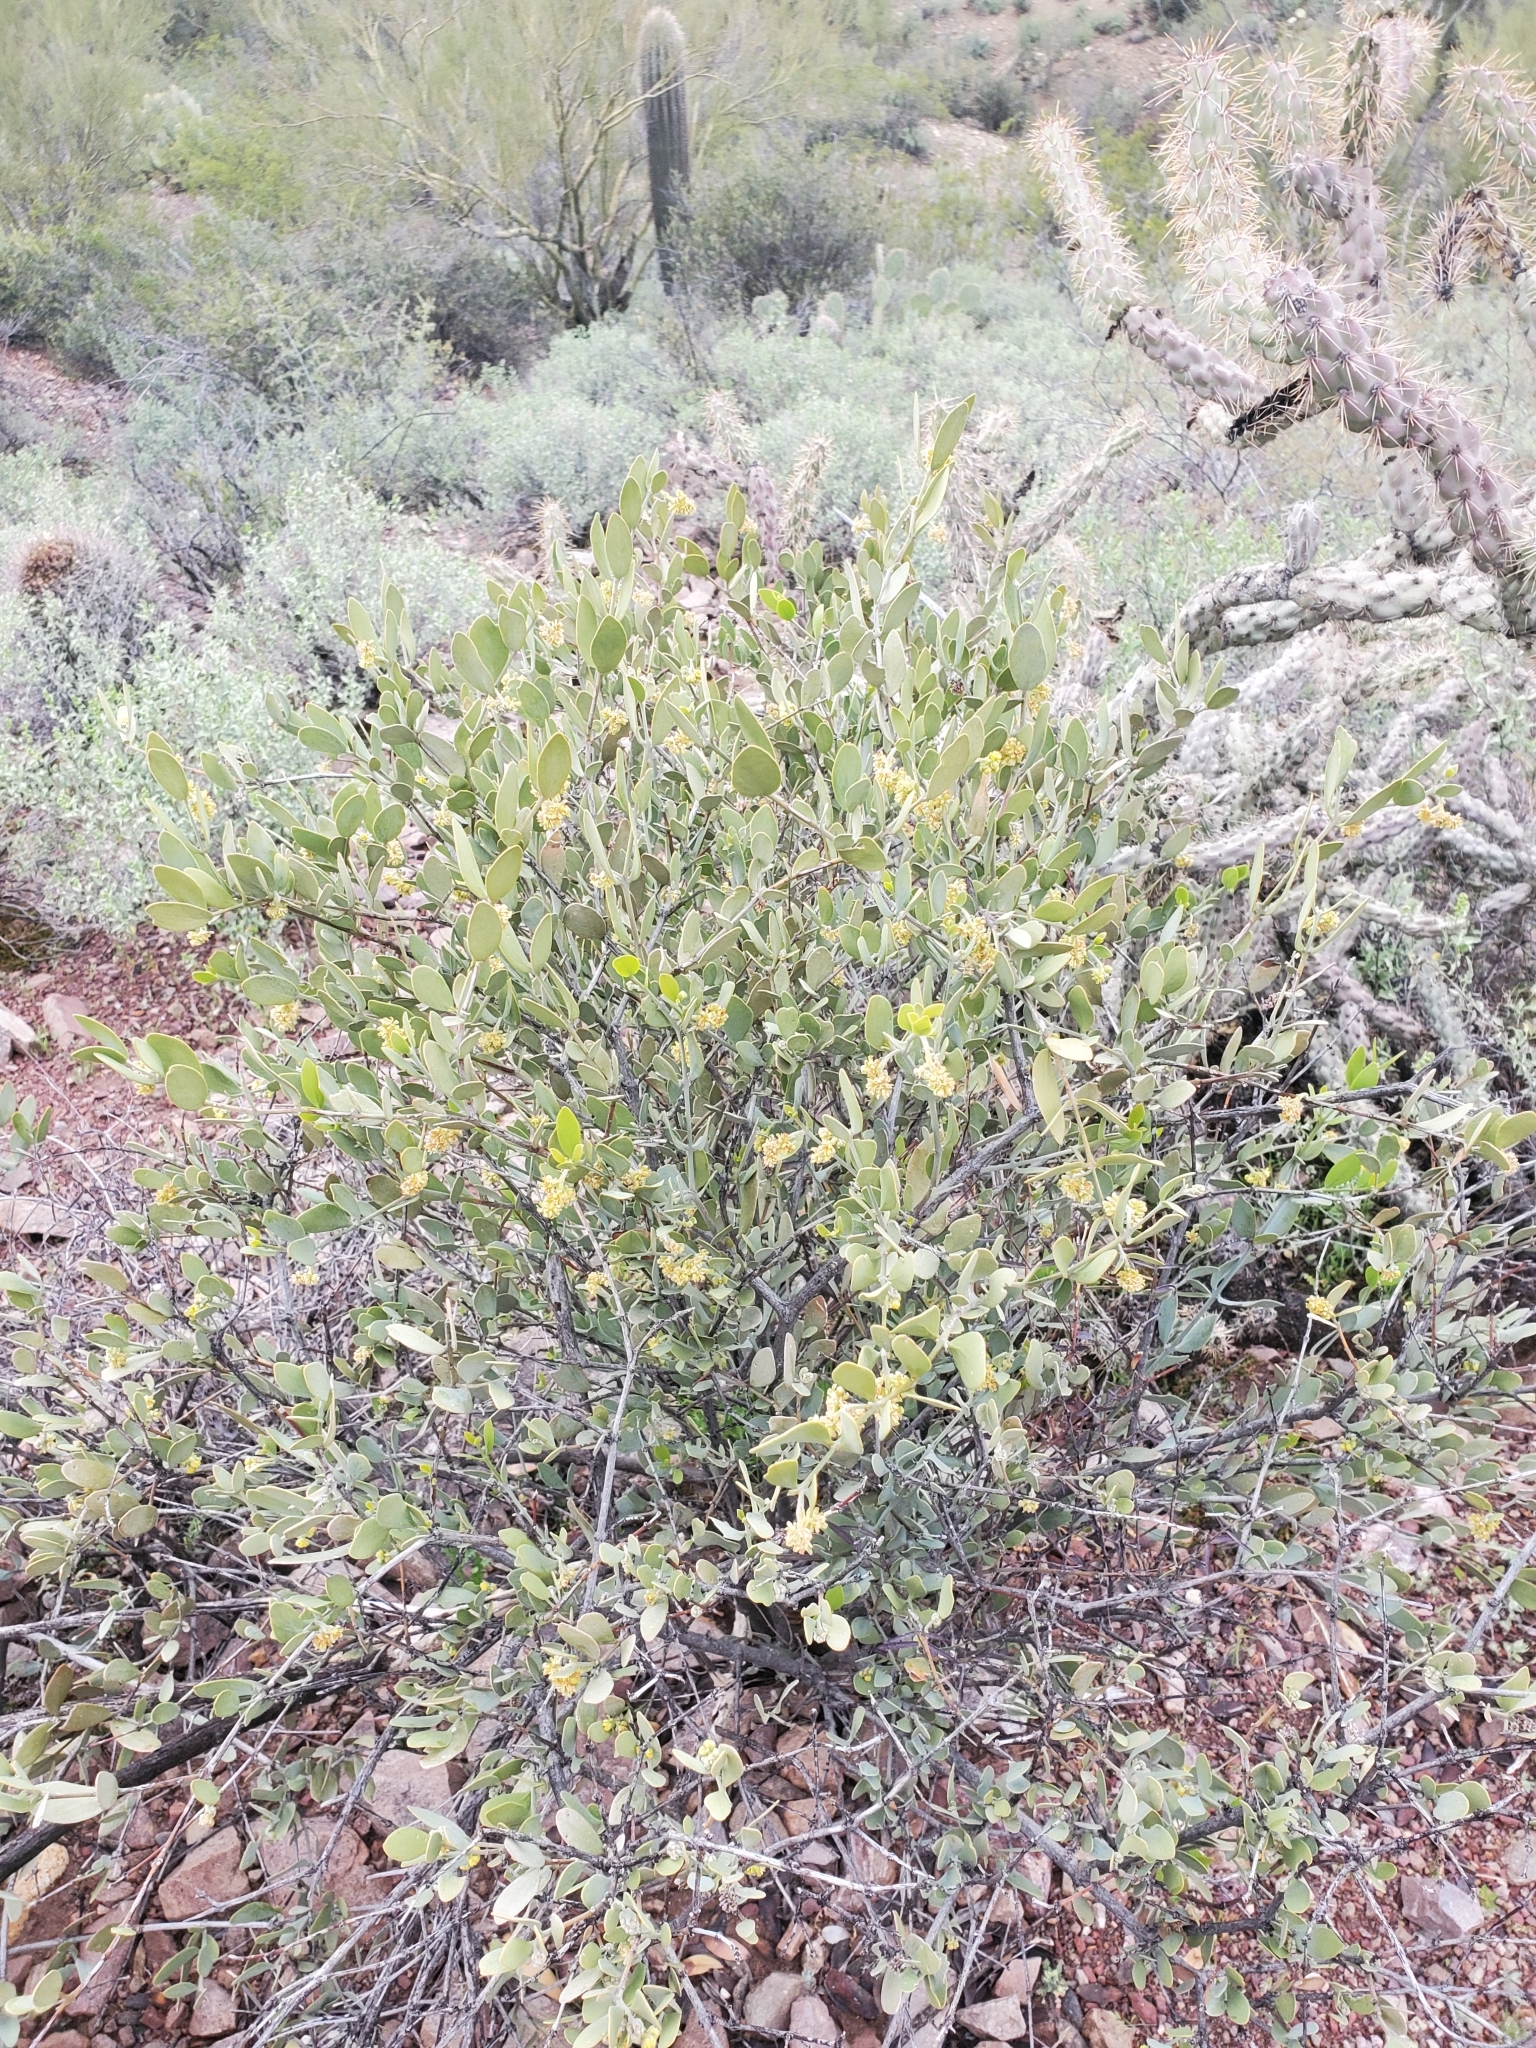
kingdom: Plantae
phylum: Tracheophyta
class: Magnoliopsida
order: Caryophyllales
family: Simmondsiaceae
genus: Simmondsia
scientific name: Simmondsia chinensis
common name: Jojoba
